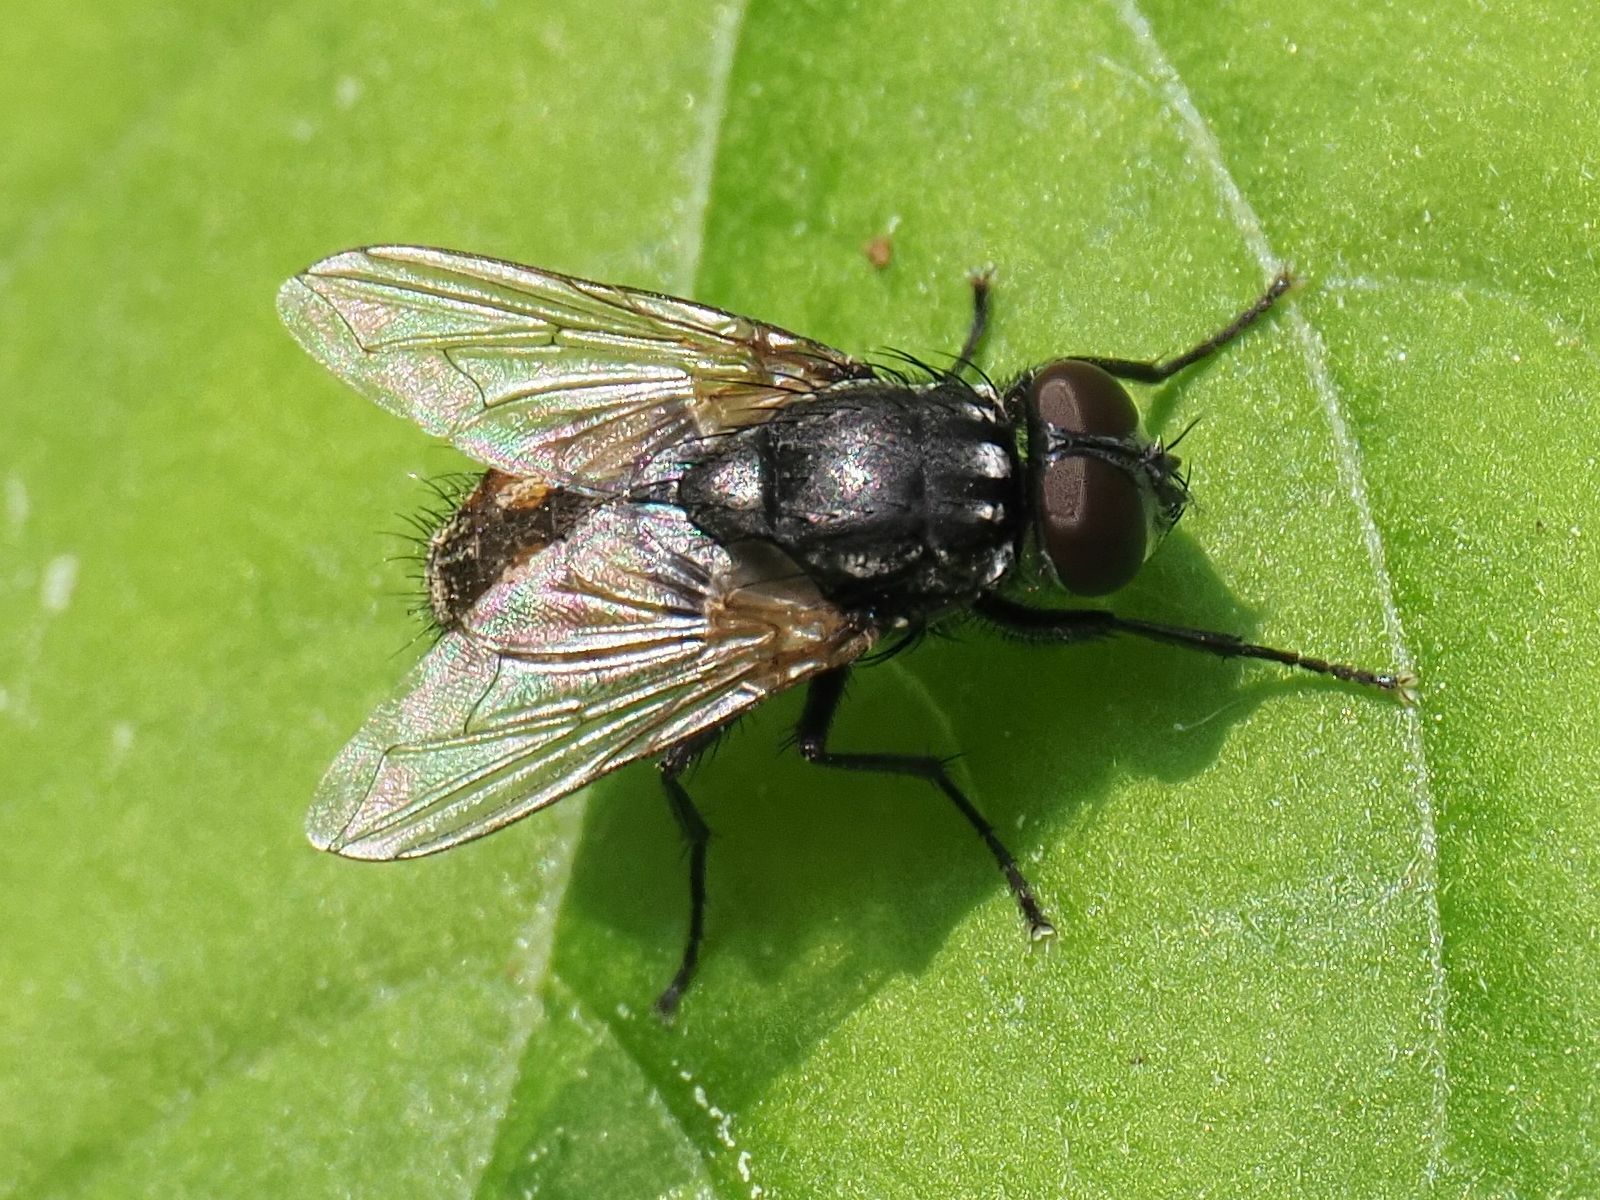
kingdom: Animalia
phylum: Arthropoda
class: Insecta
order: Diptera
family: Muscidae
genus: Musca
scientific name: Musca autumnalis
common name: Face fly
